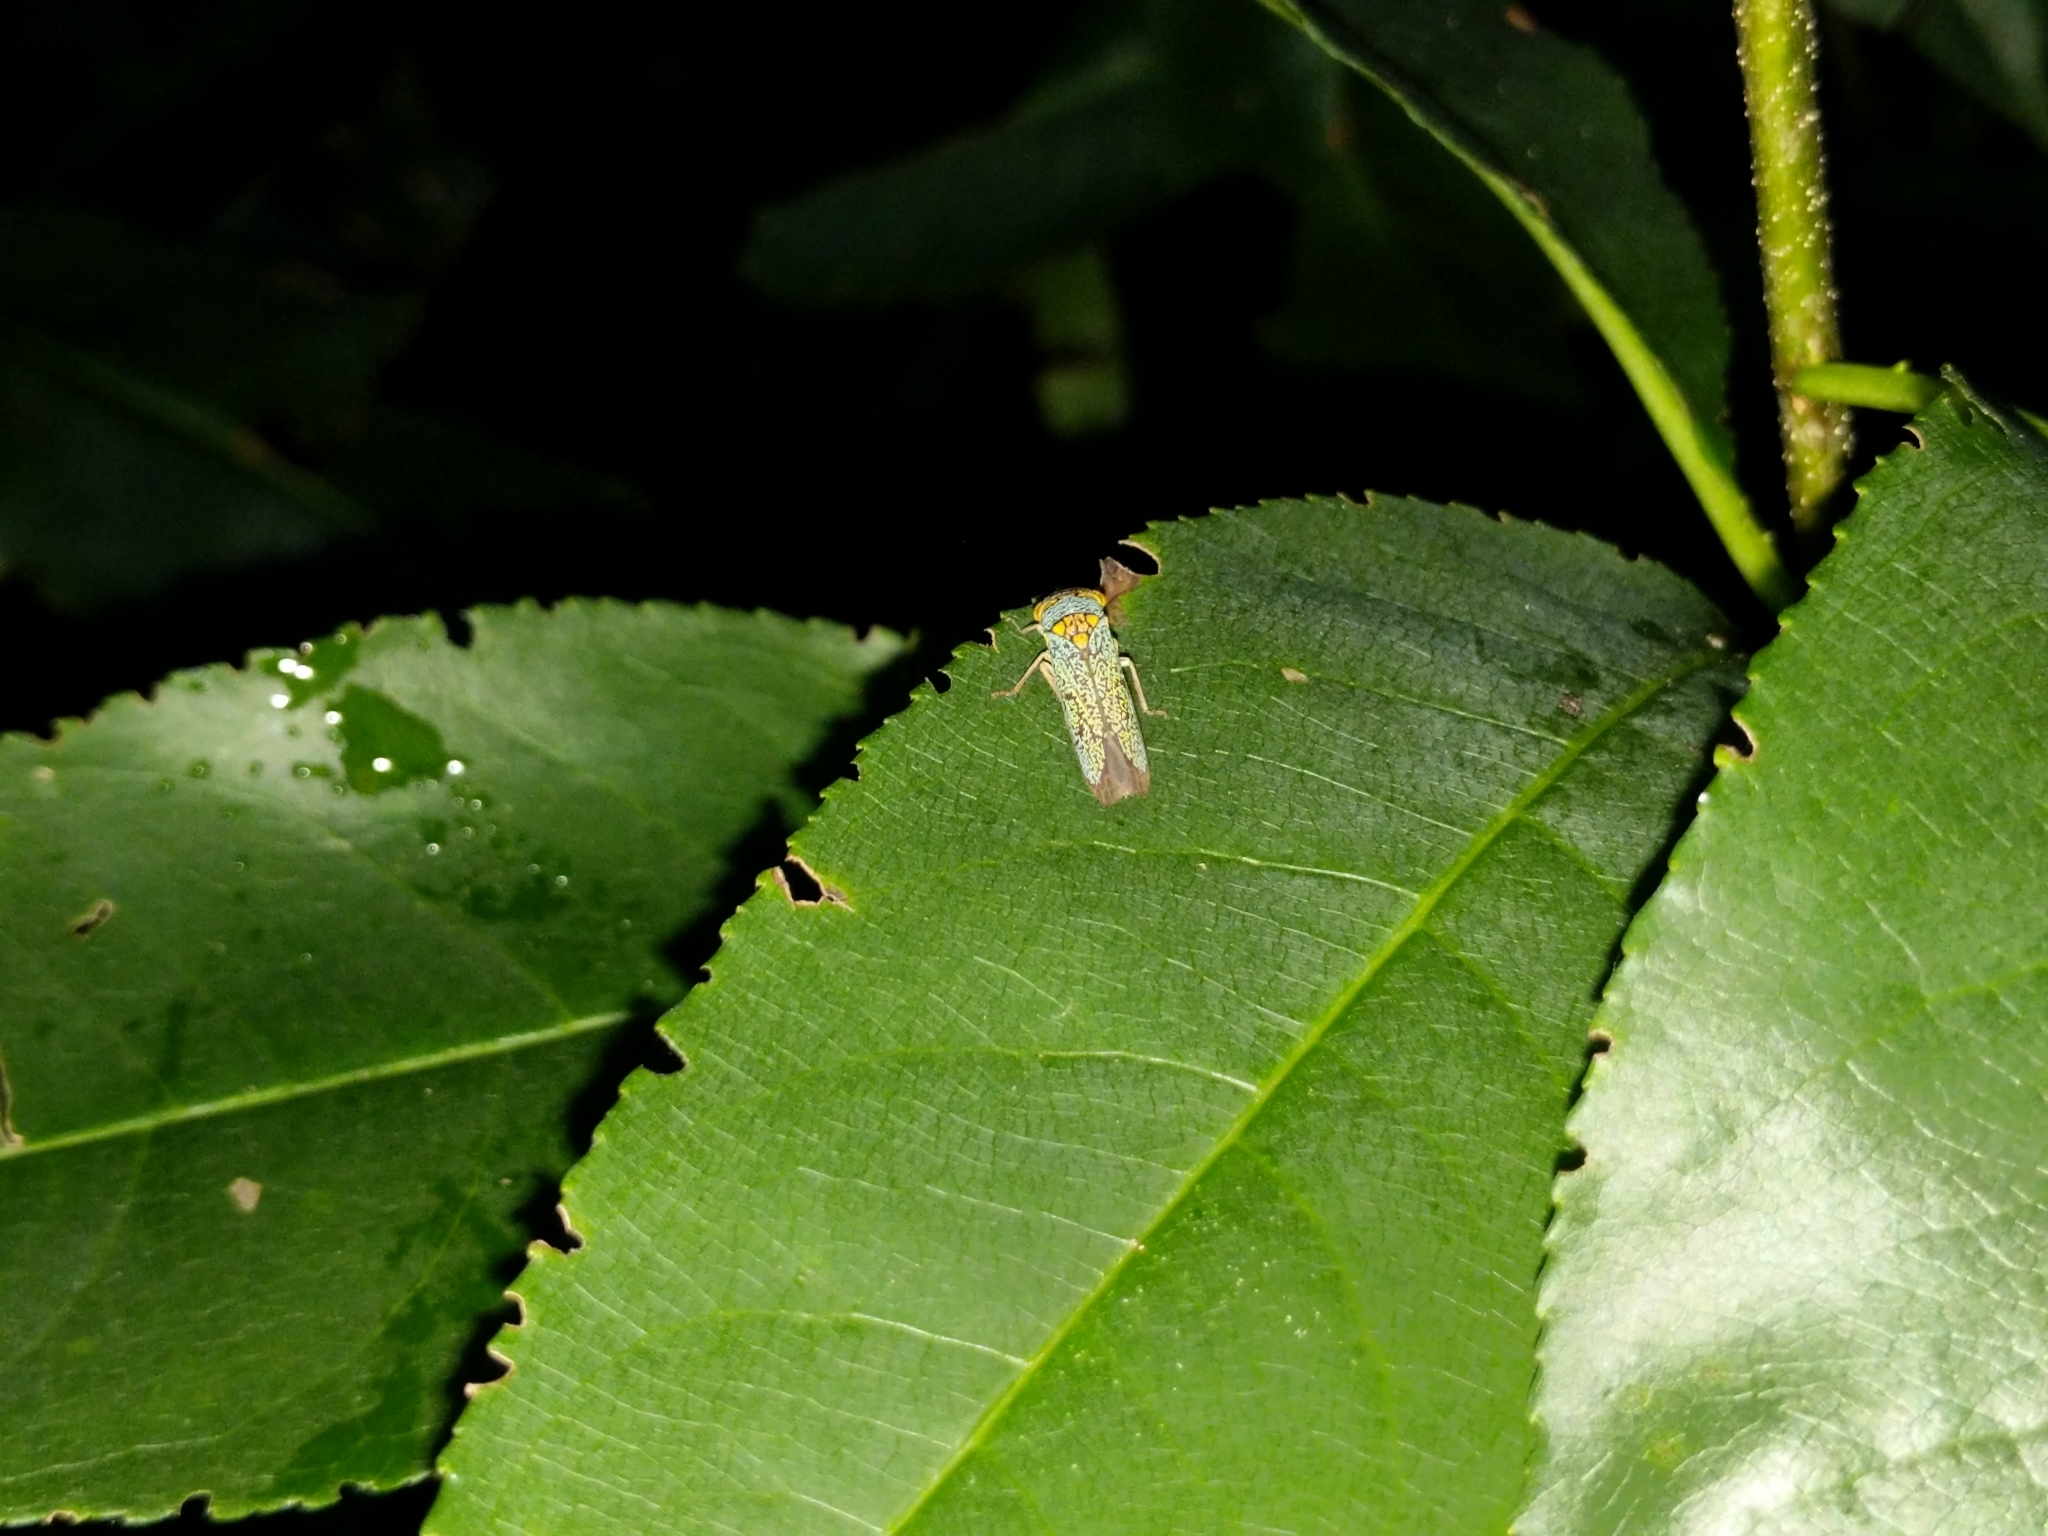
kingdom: Animalia
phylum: Arthropoda
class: Insecta
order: Hemiptera
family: Cicadellidae
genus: Oncometopia
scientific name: Oncometopia orbona
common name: Broad-headed sharpshooter
